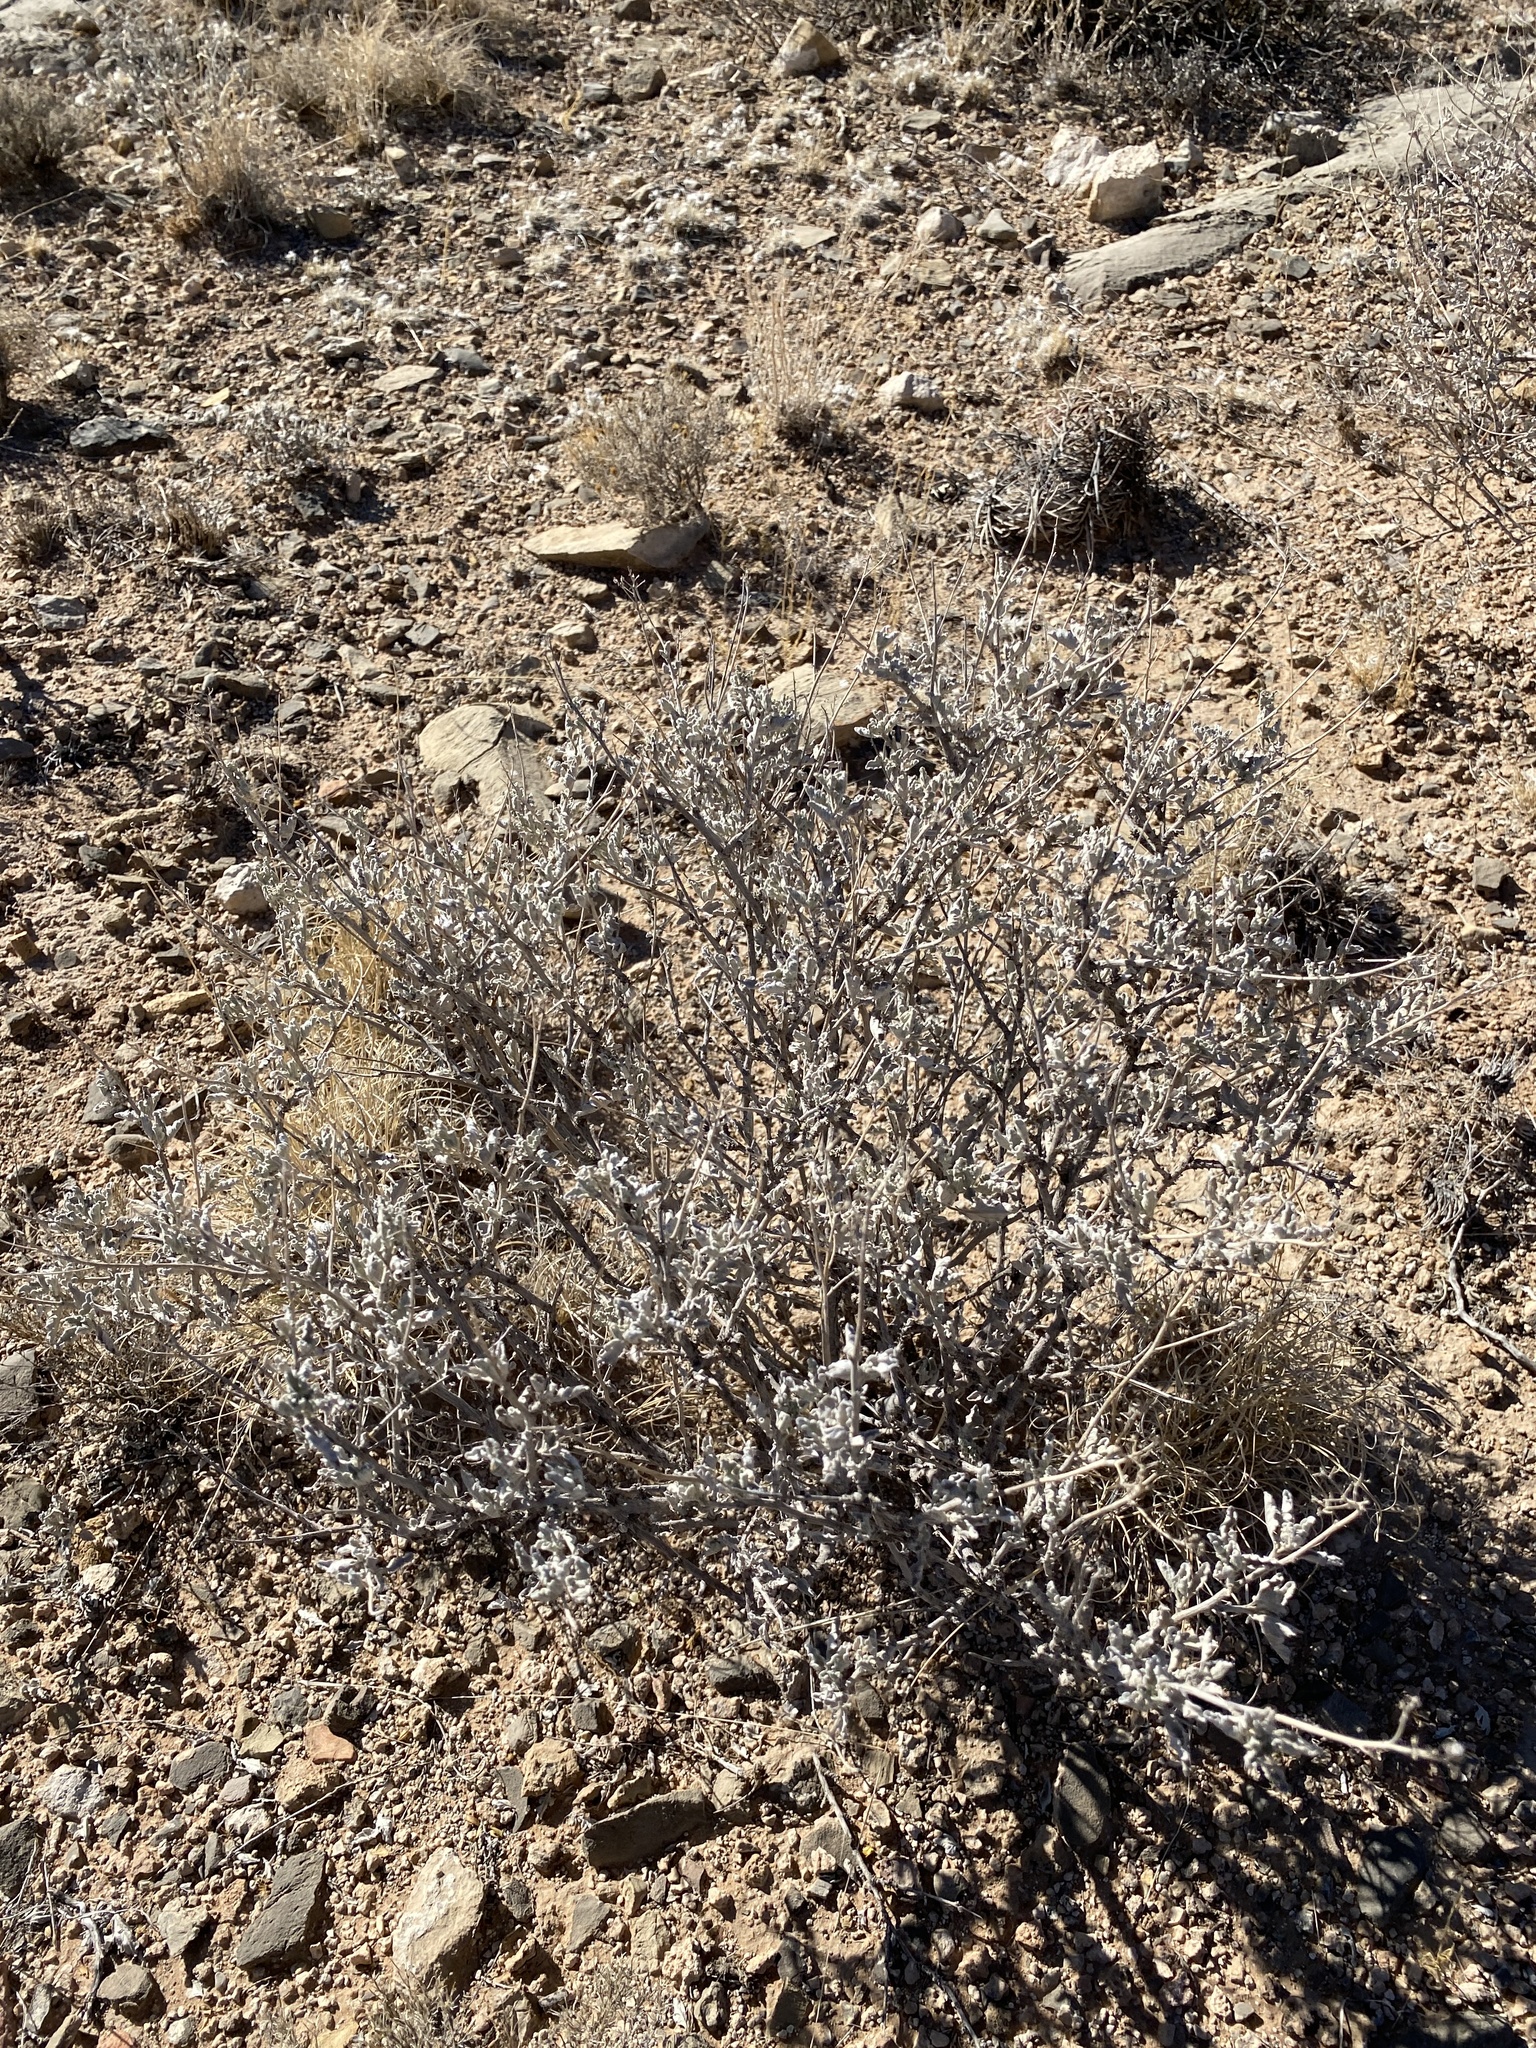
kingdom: Plantae
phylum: Tracheophyta
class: Magnoliopsida
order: Asterales
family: Asteraceae
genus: Parthenium
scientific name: Parthenium incanum
